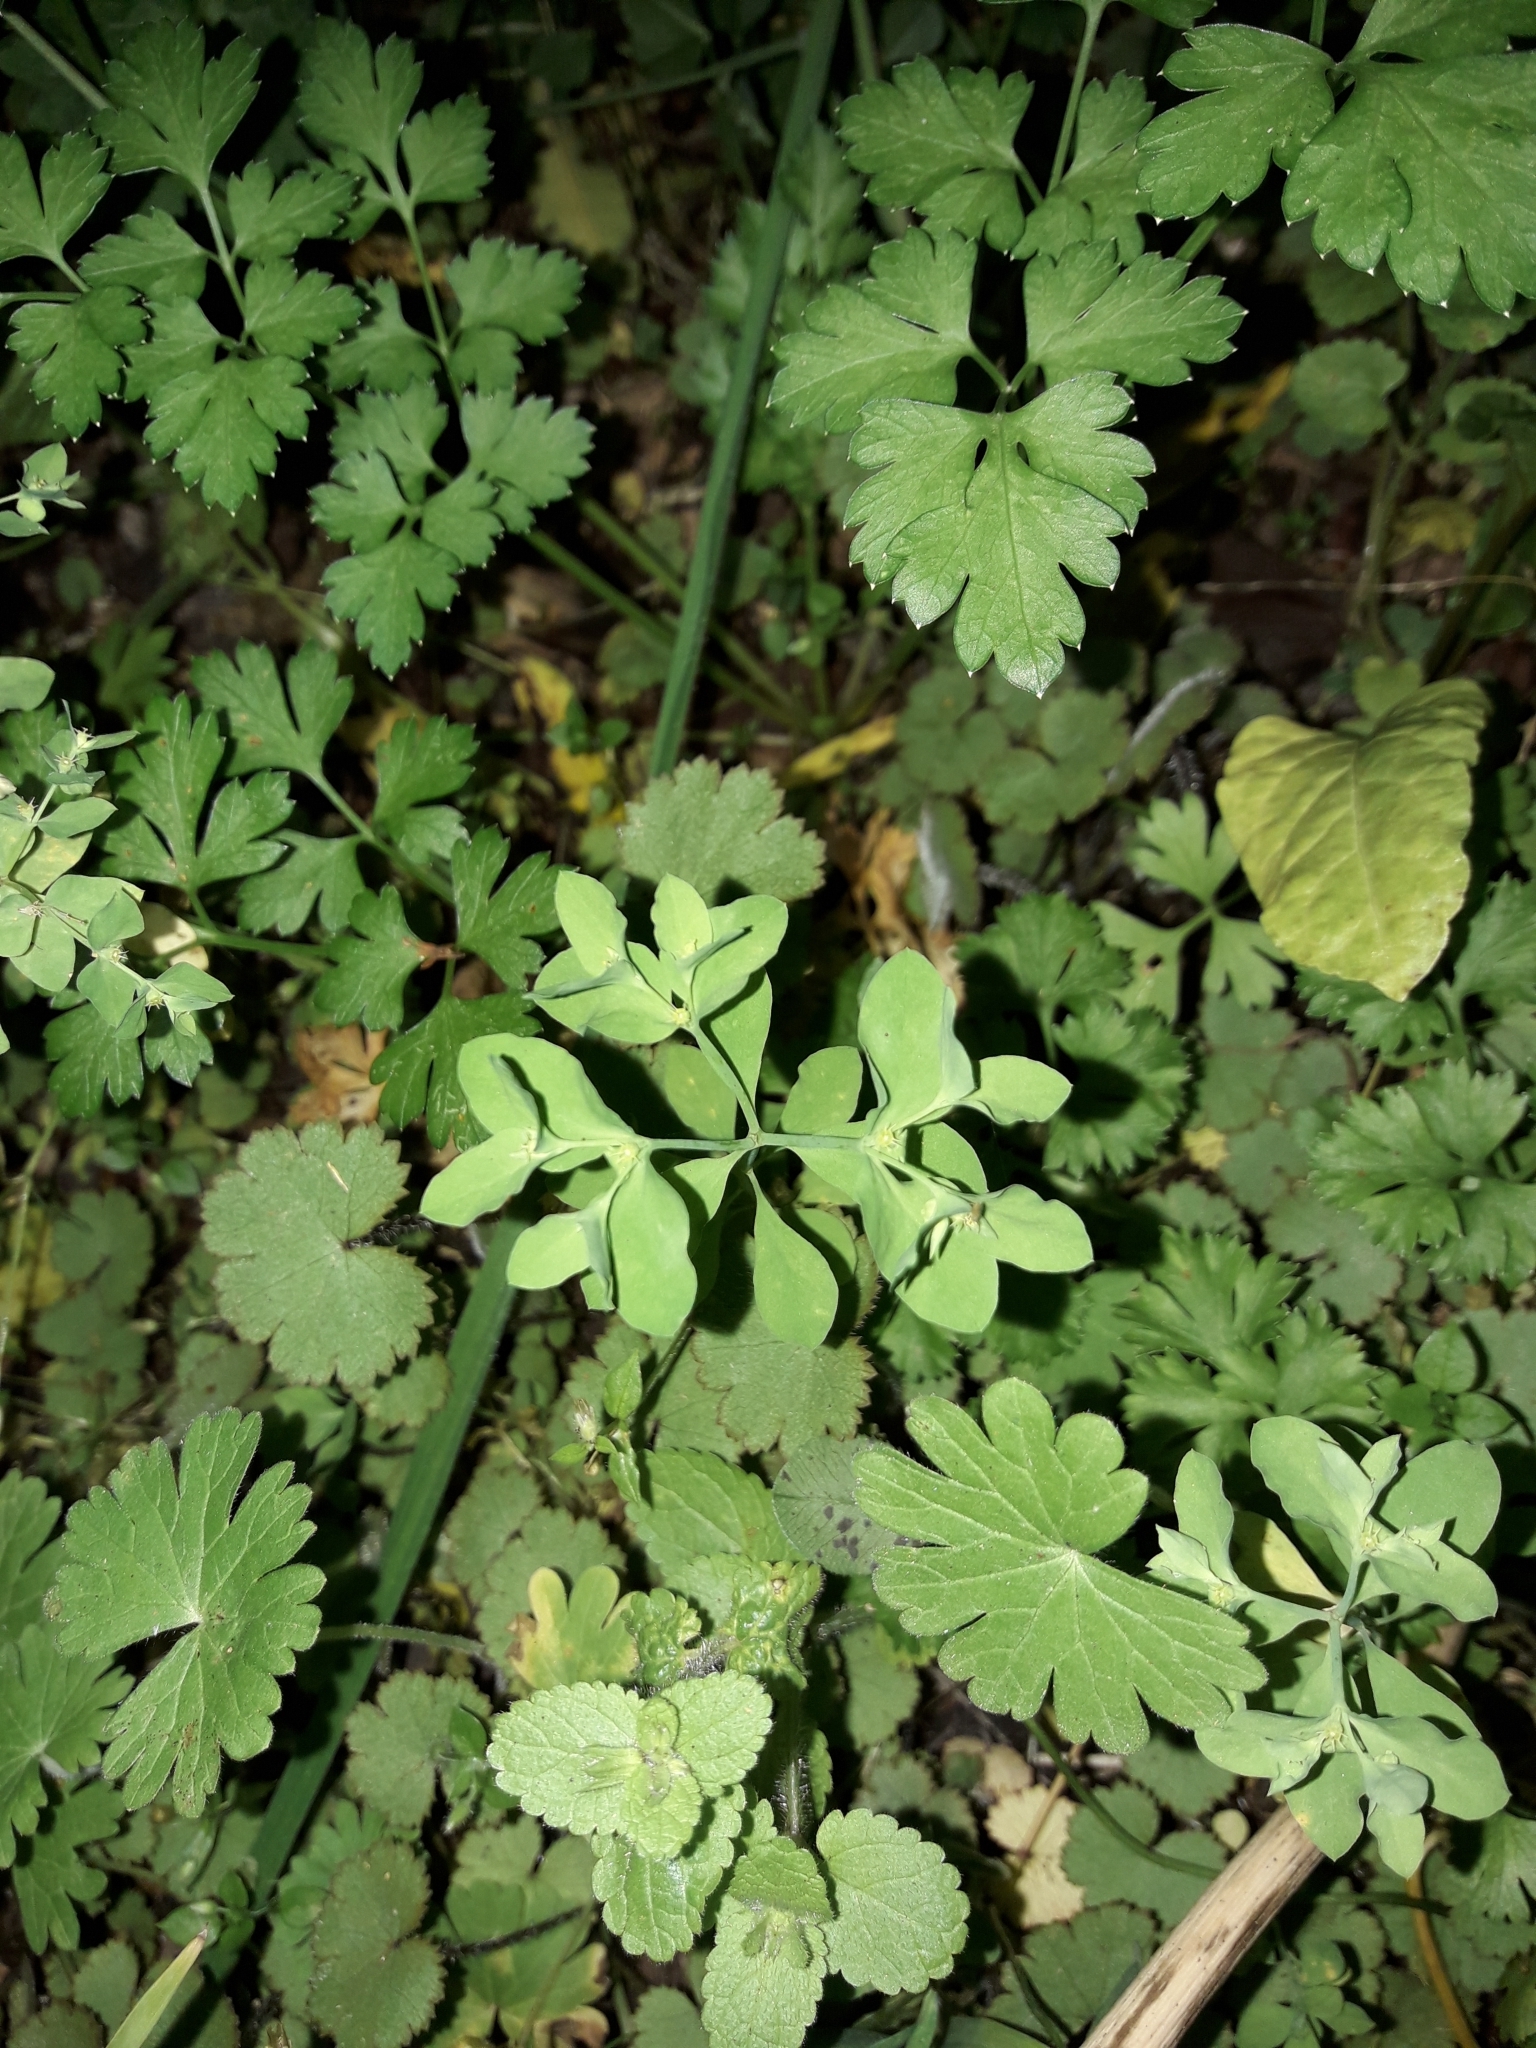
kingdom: Plantae
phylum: Tracheophyta
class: Magnoliopsida
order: Malpighiales
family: Euphorbiaceae
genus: Euphorbia
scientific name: Euphorbia peplus
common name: Petty spurge
